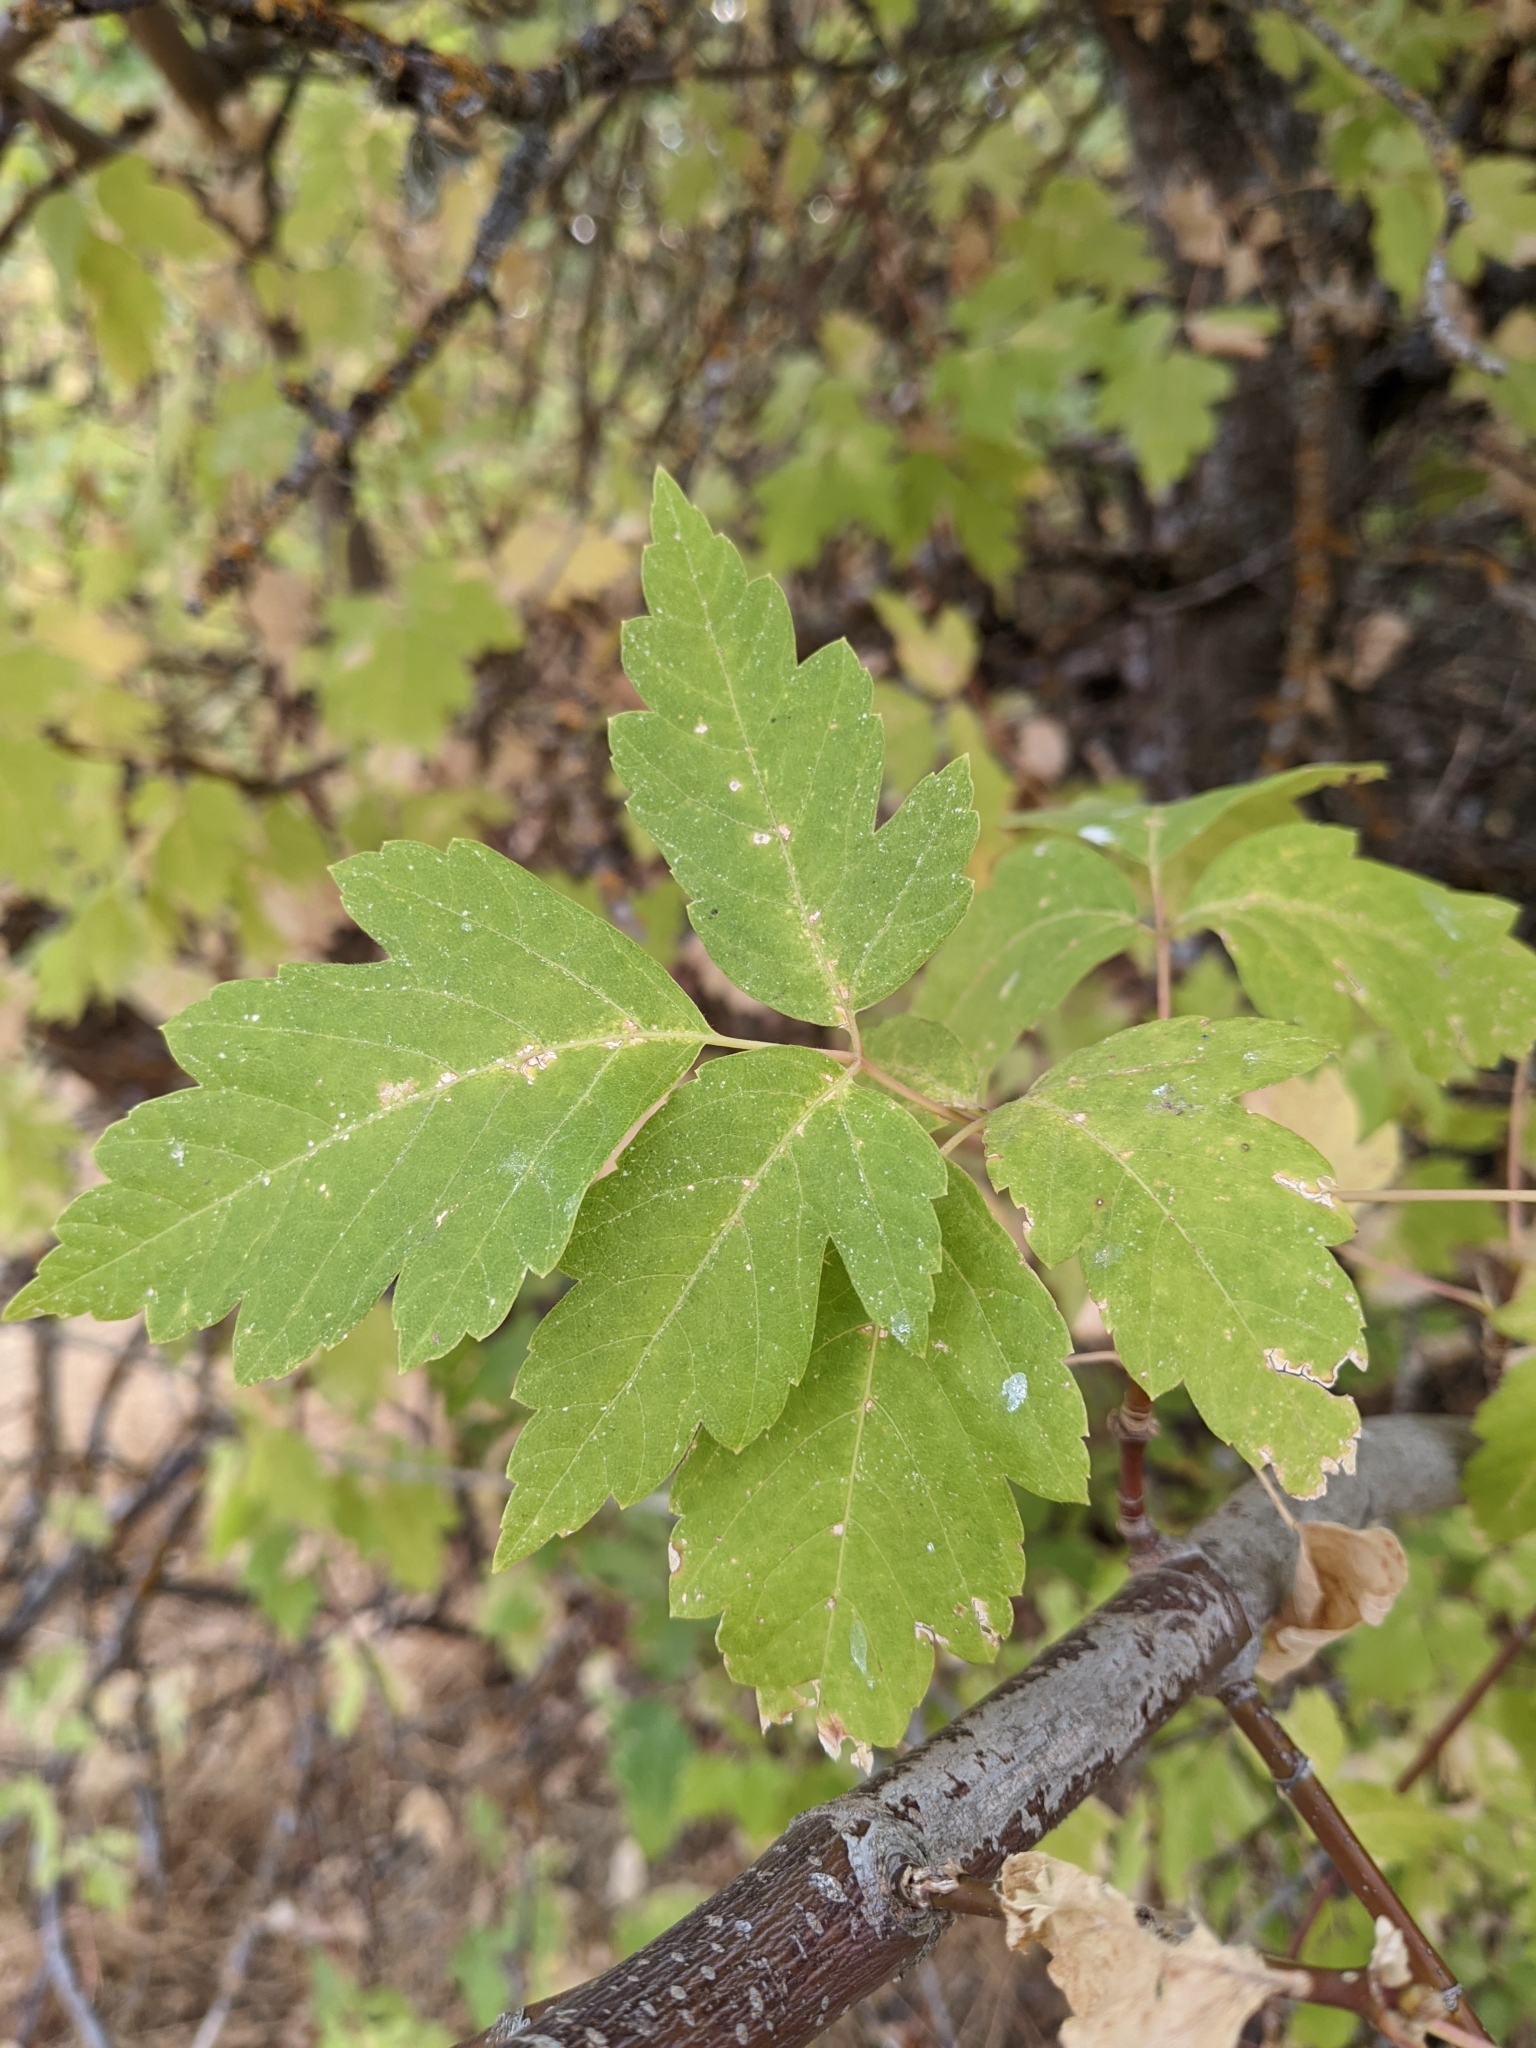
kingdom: Plantae
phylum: Tracheophyta
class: Magnoliopsida
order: Sapindales
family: Sapindaceae
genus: Acer
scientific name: Acer negundo
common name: Ashleaf maple
